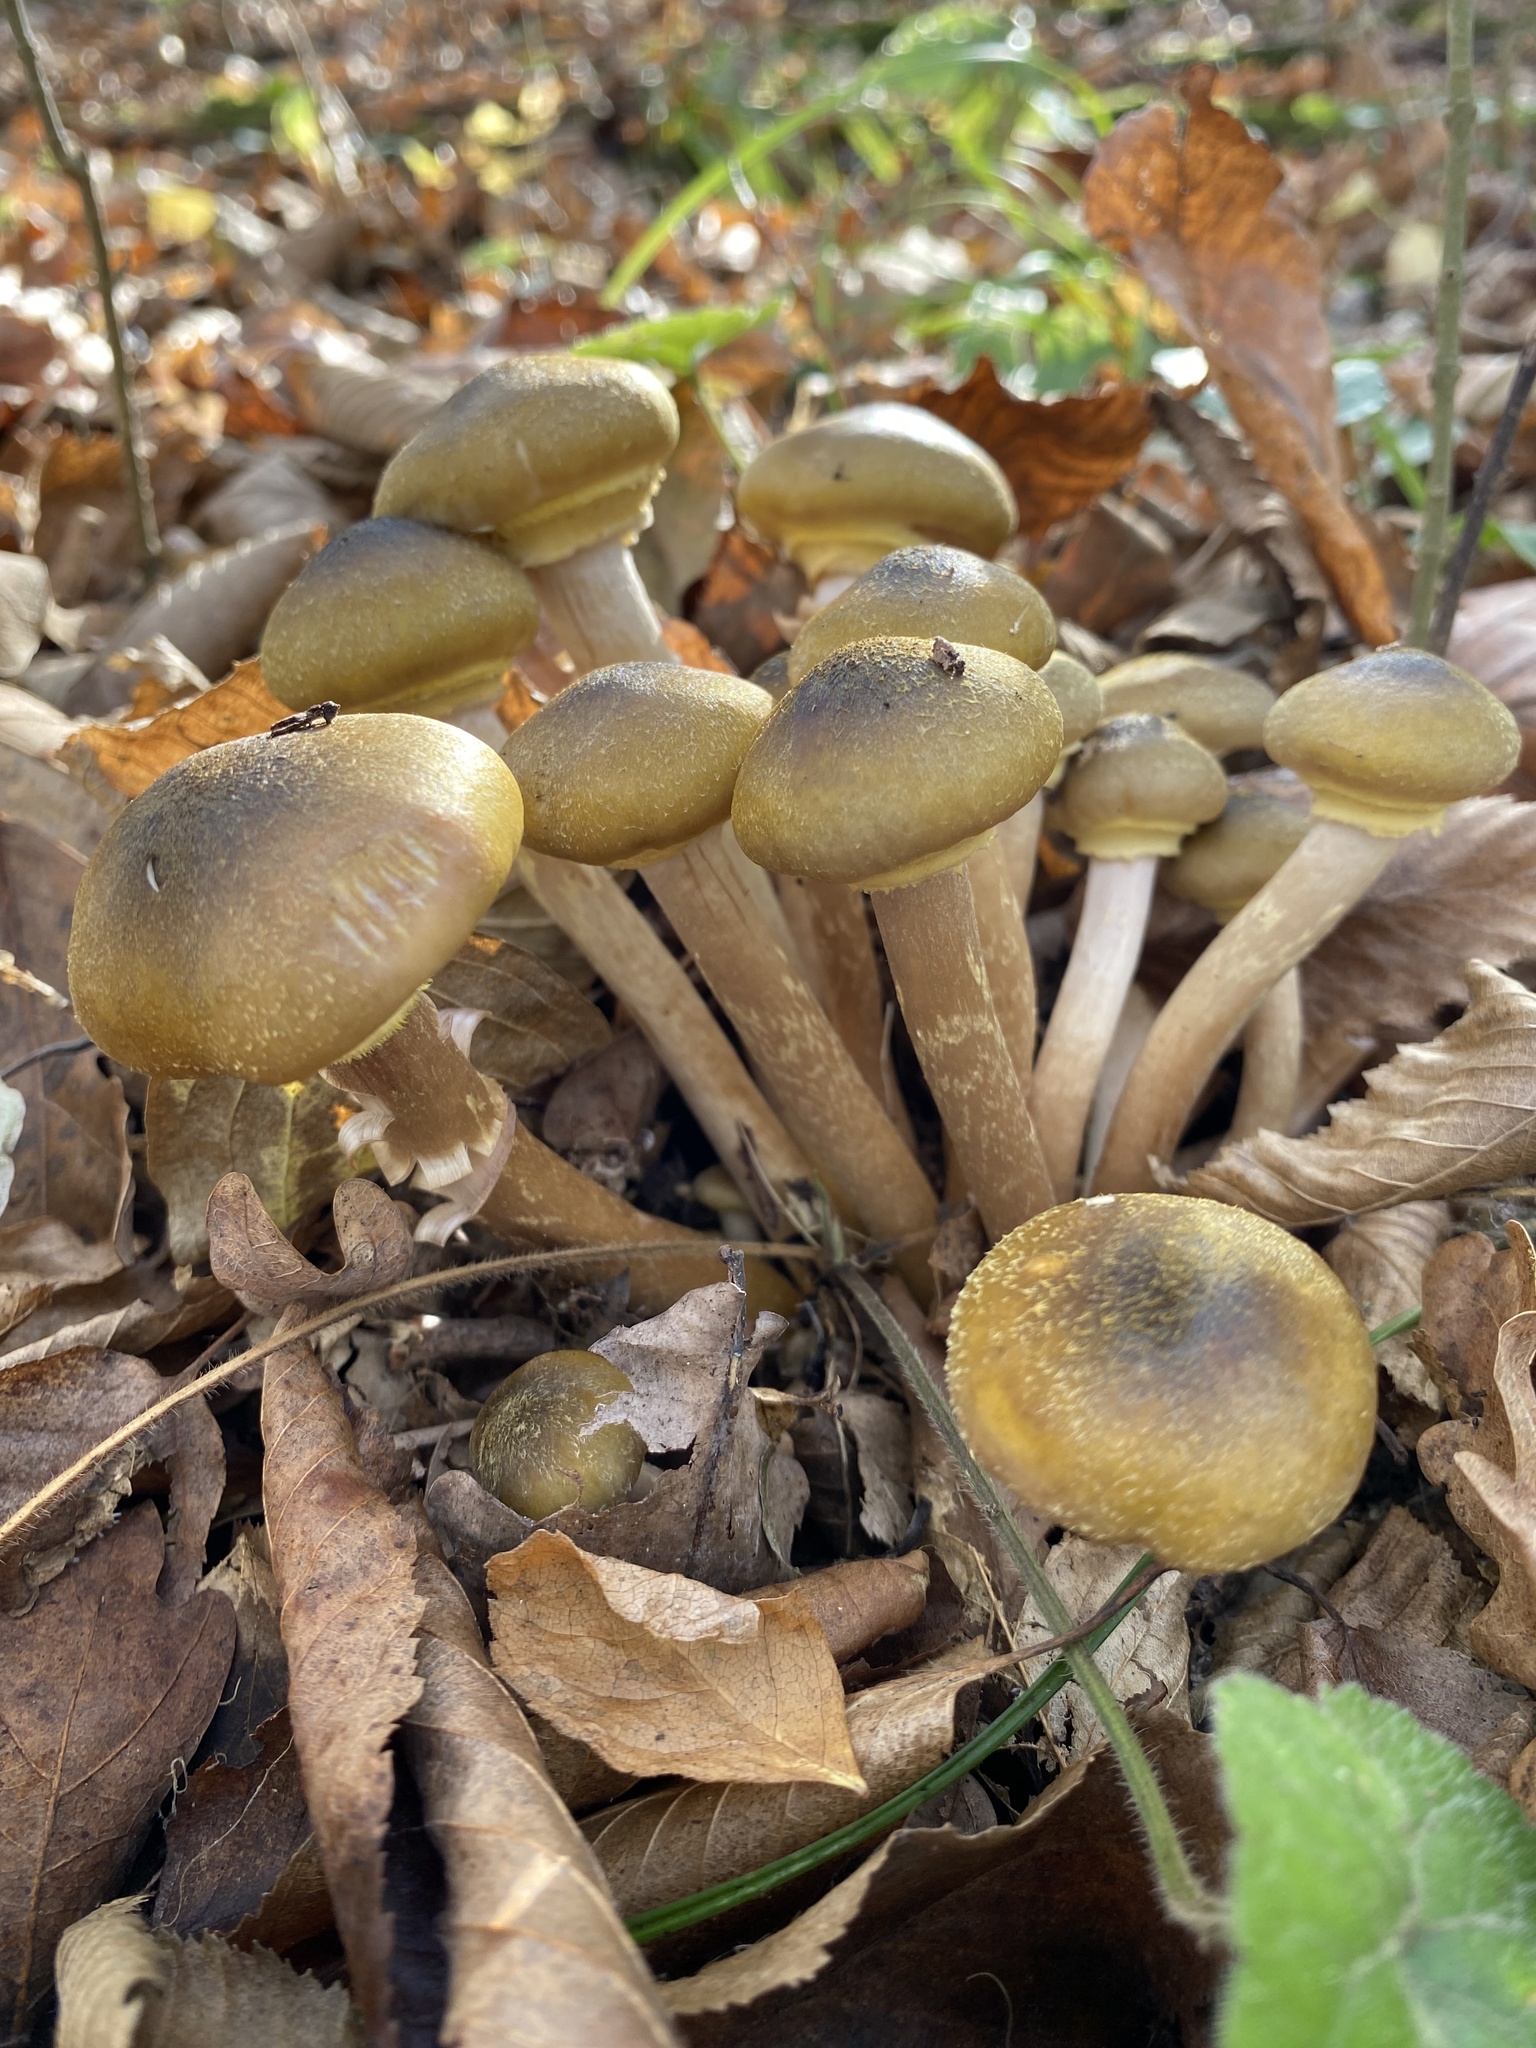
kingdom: Fungi
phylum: Basidiomycota
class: Agaricomycetes
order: Agaricales
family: Physalacriaceae
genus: Armillaria
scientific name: Armillaria mellea
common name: Honey fungus
